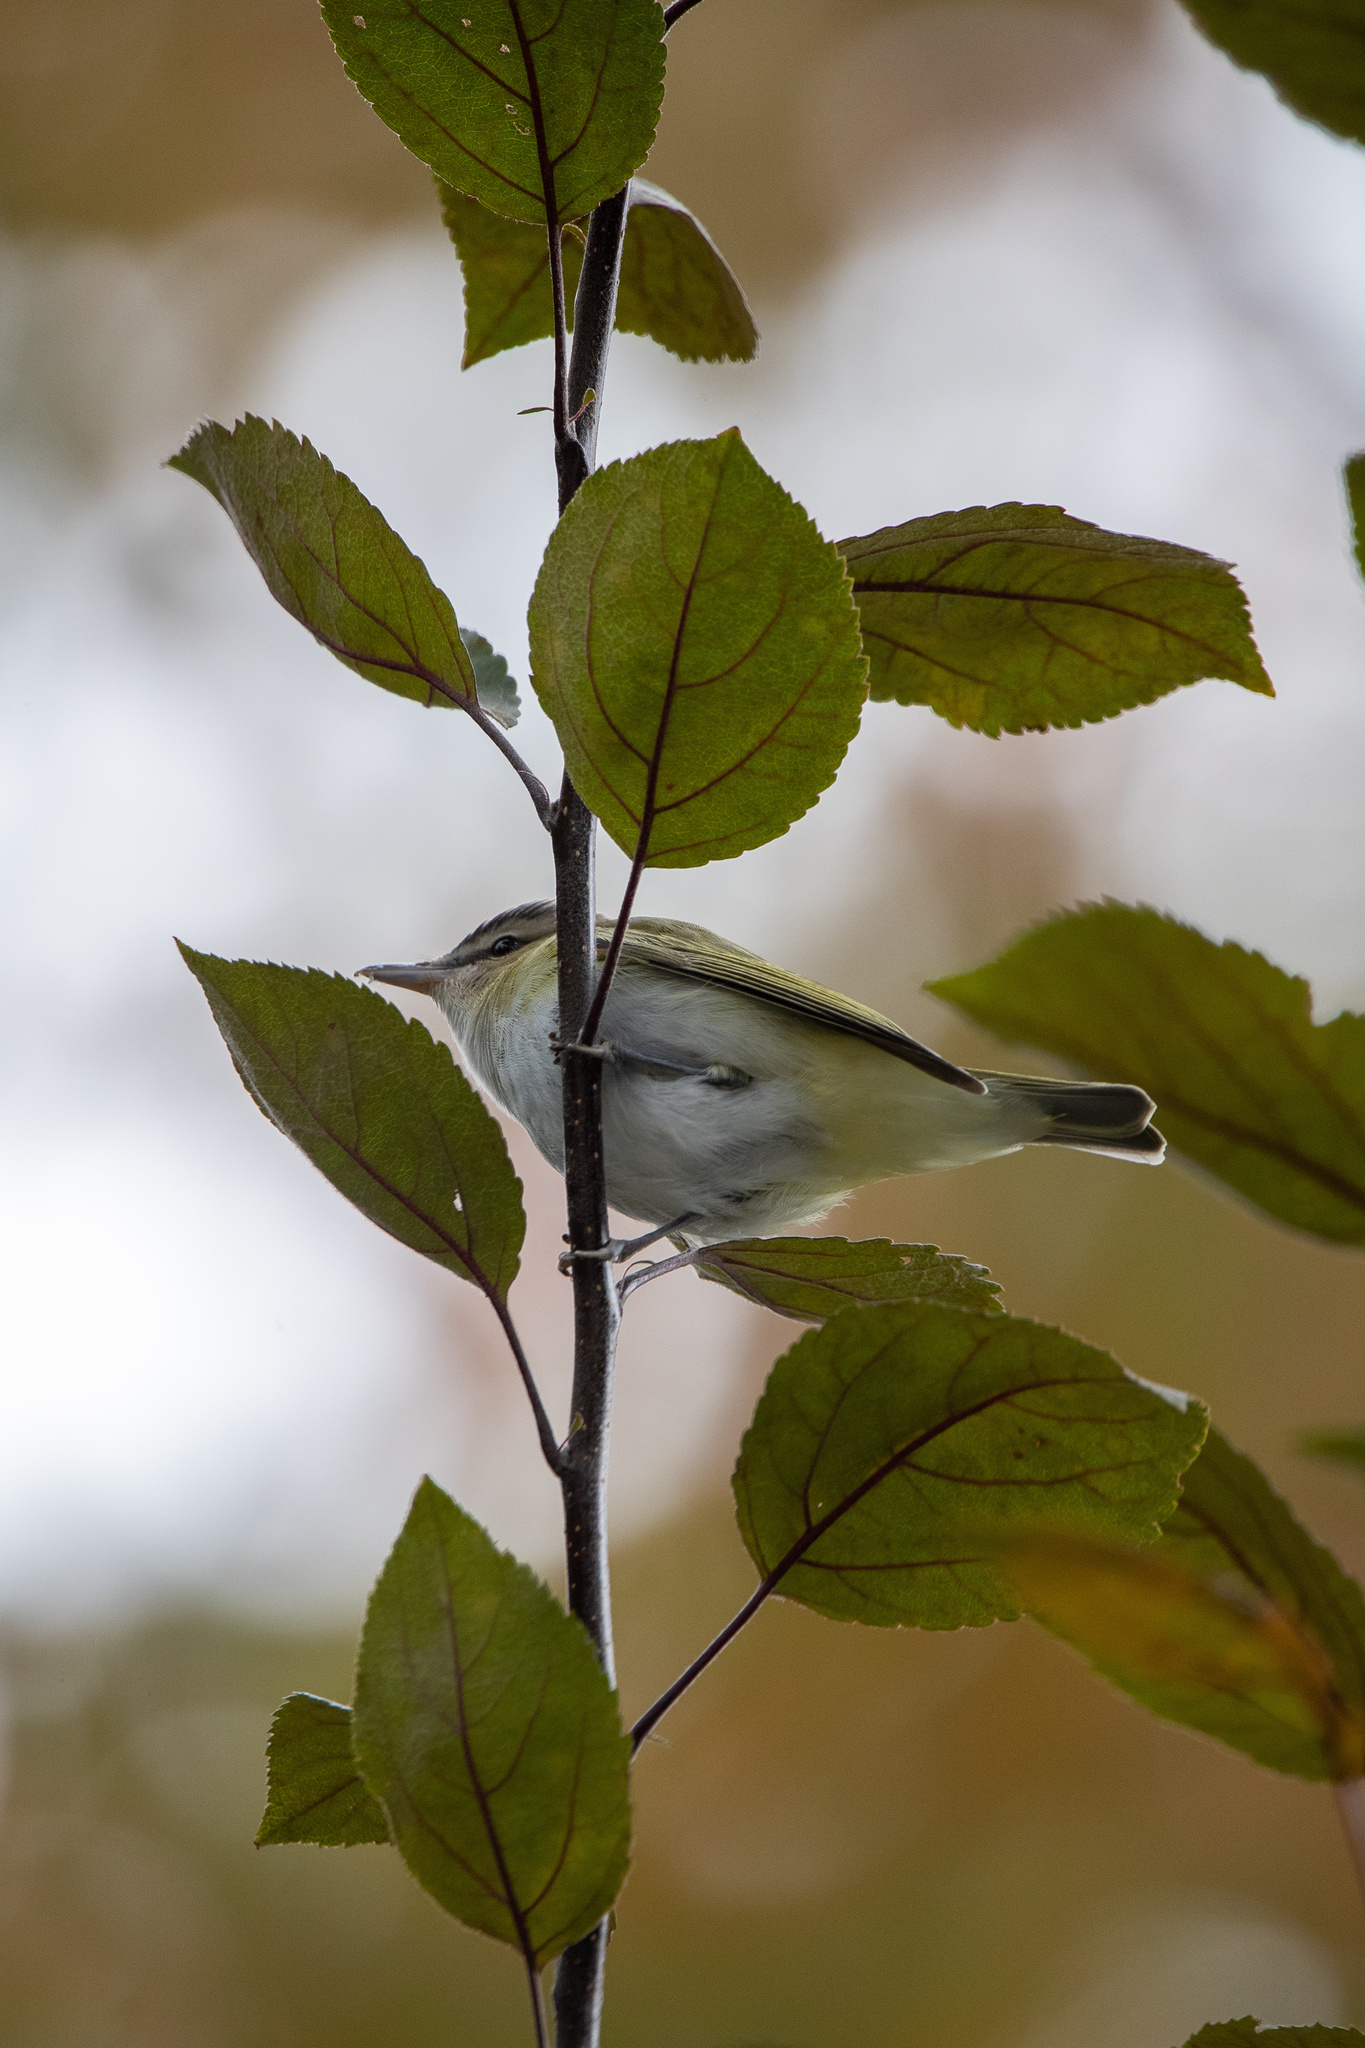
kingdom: Animalia
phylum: Chordata
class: Aves
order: Passeriformes
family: Vireonidae
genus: Vireo
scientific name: Vireo olivaceus
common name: Red-eyed vireo
